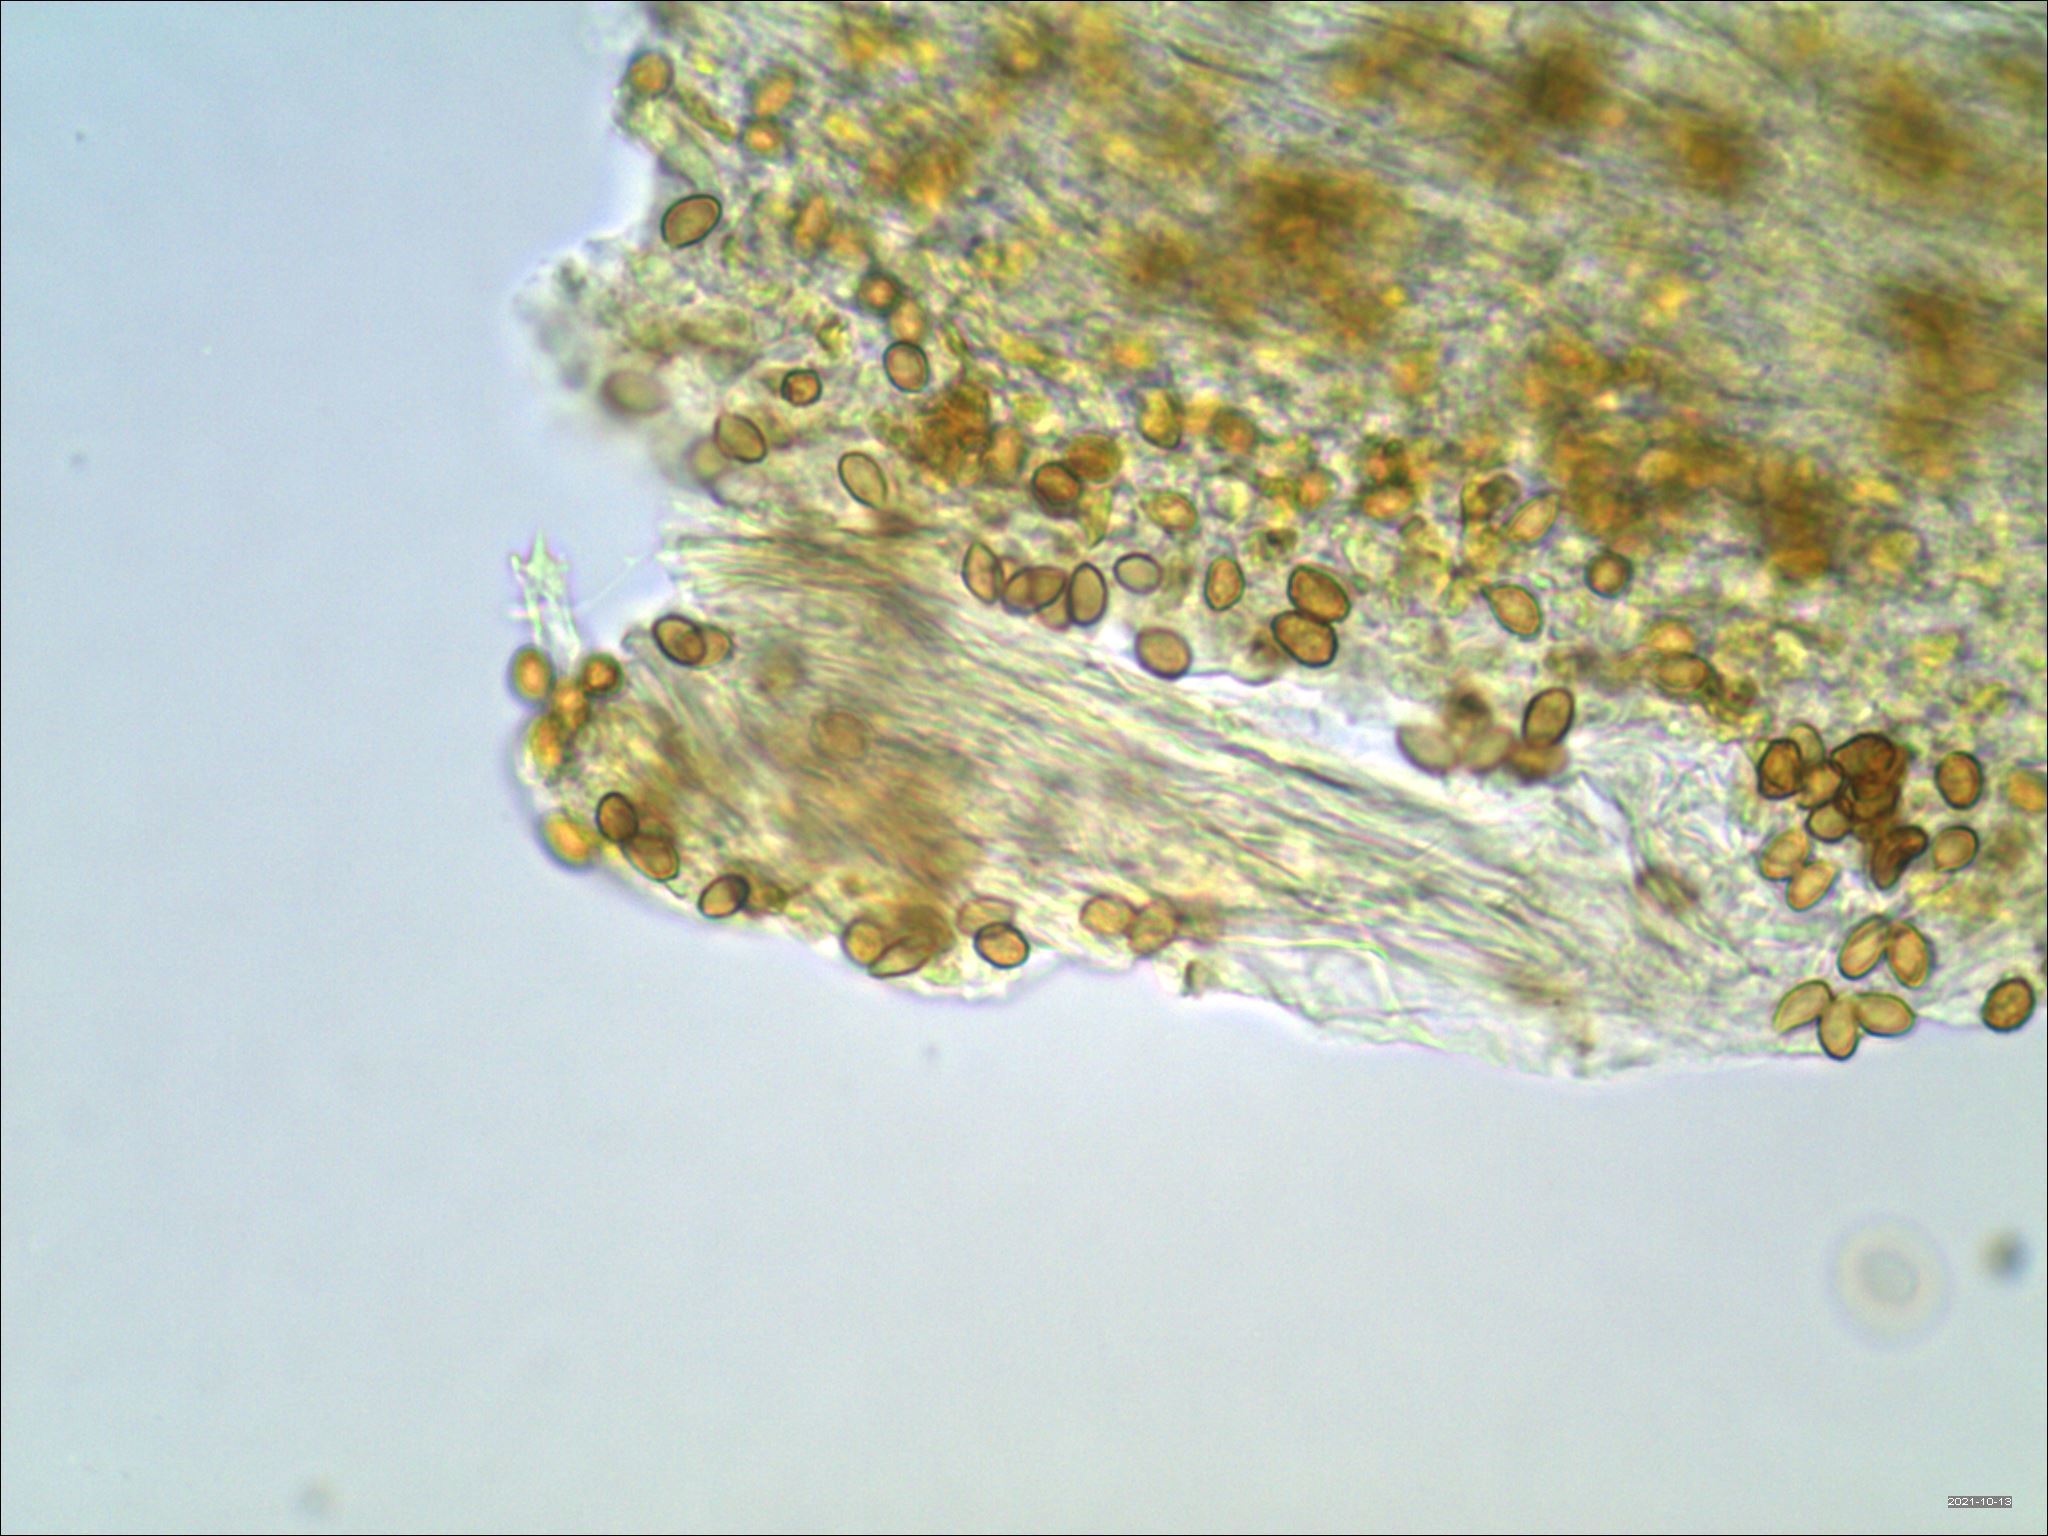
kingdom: Fungi
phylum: Basidiomycota
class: Agaricomycetes
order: Agaricales
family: Cortinariaceae
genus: Cortinarius
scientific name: Cortinarius obliquus
